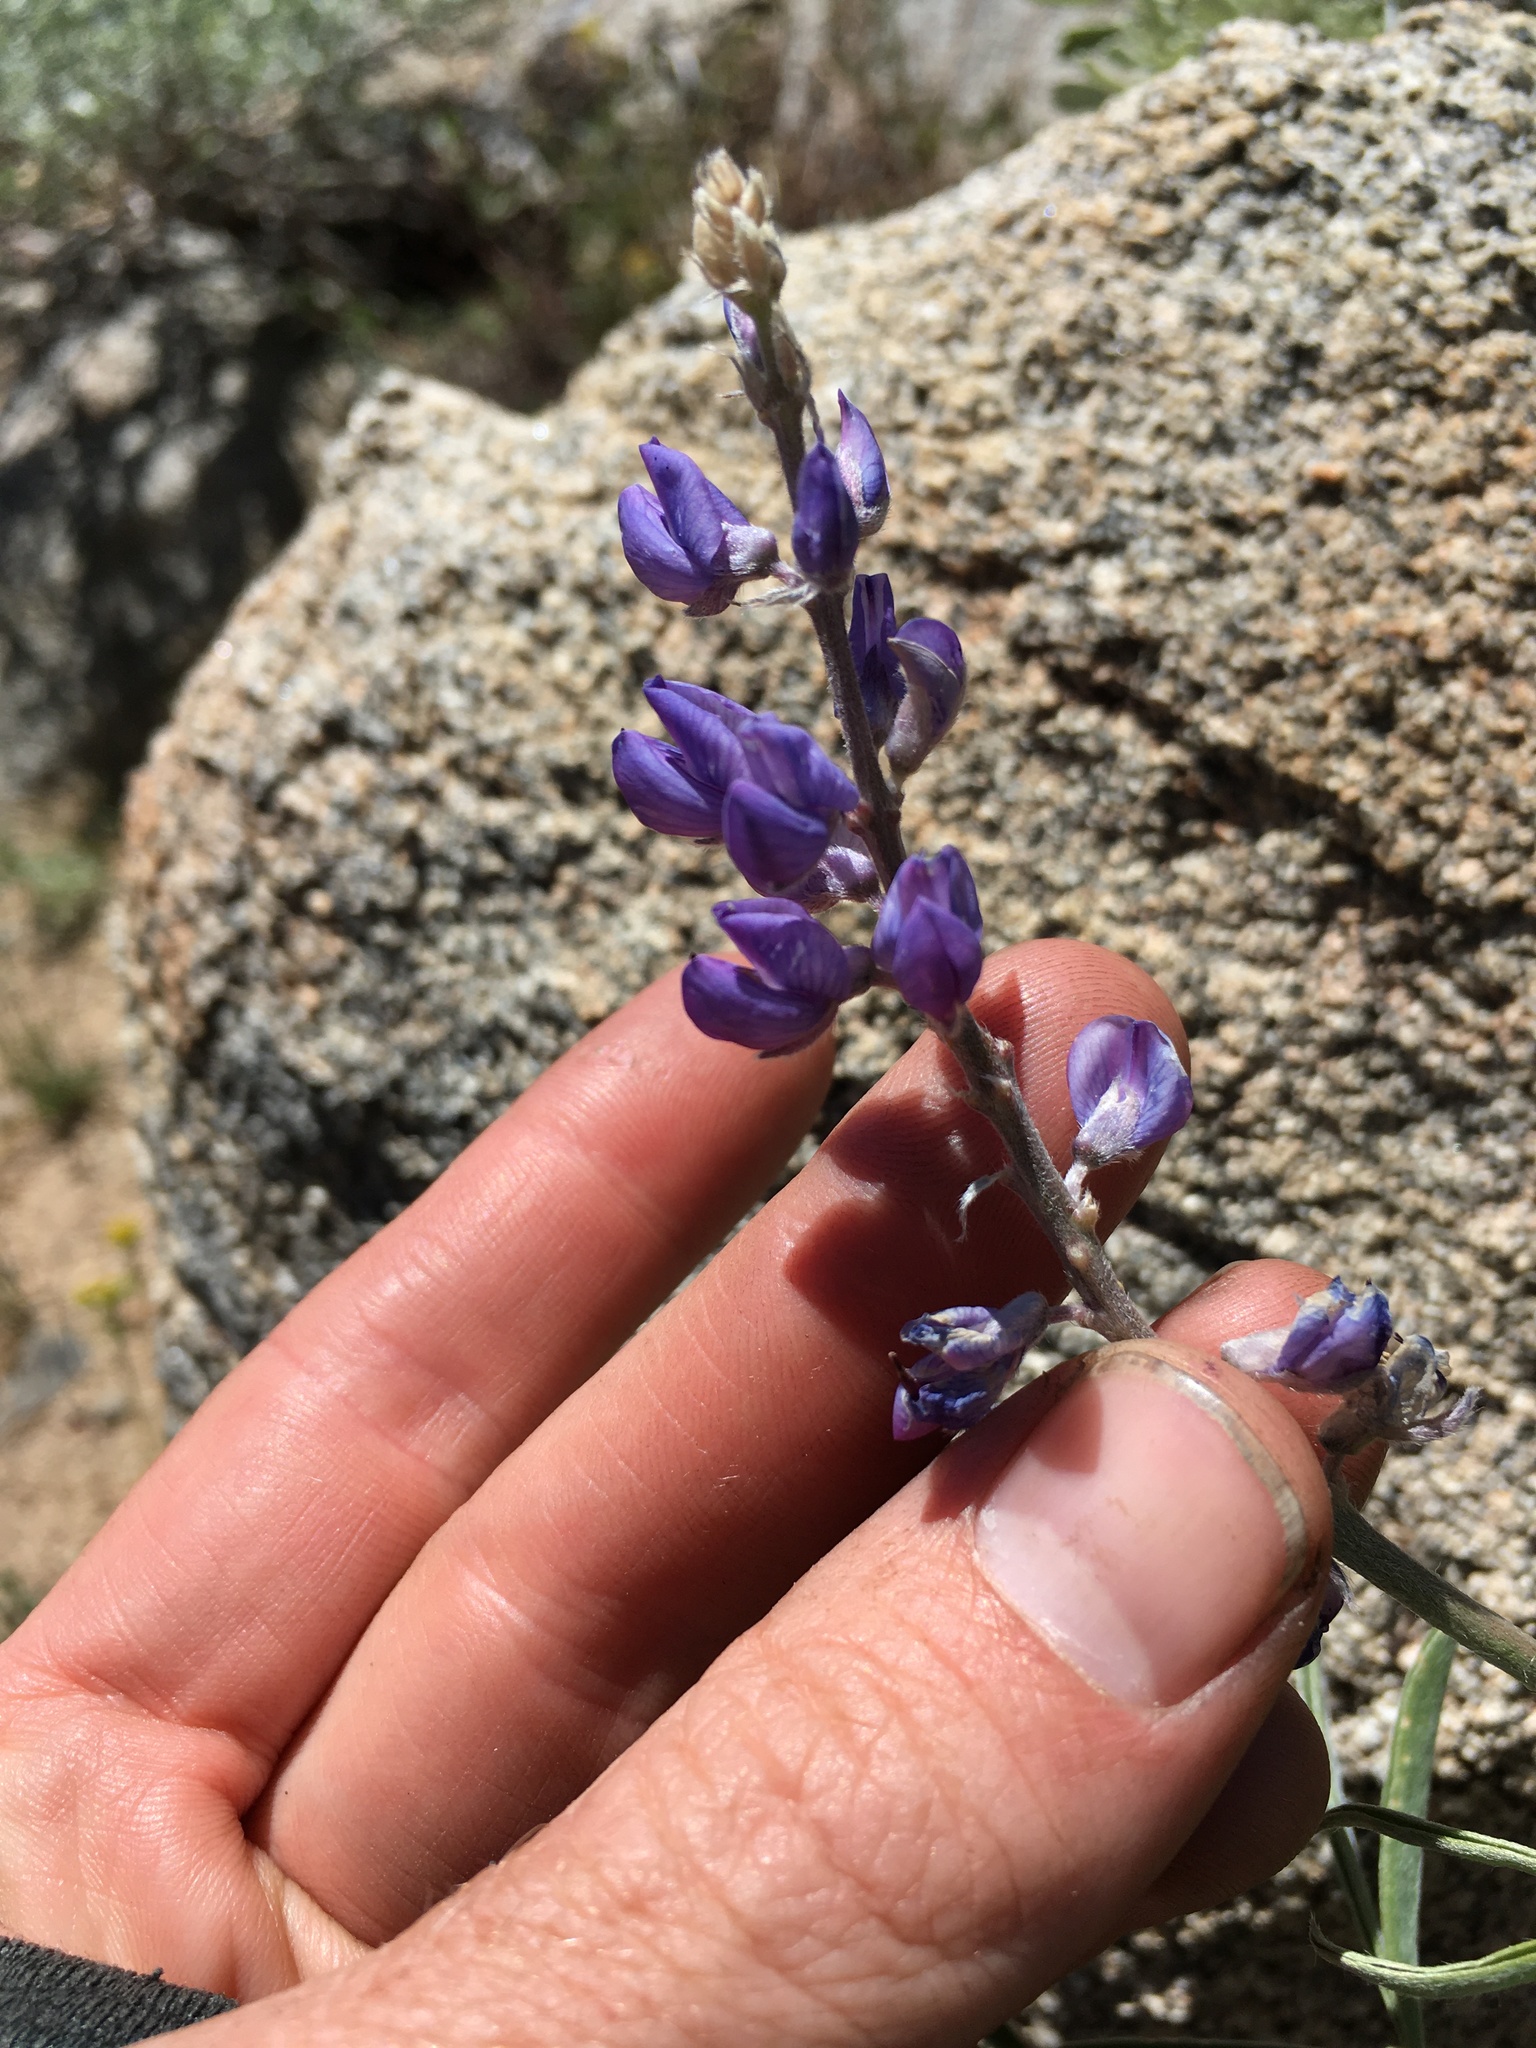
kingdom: Plantae
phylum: Tracheophyta
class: Magnoliopsida
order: Fabales
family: Fabaceae
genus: Lupinus
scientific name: Lupinus argenteus
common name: Silvery lupine
